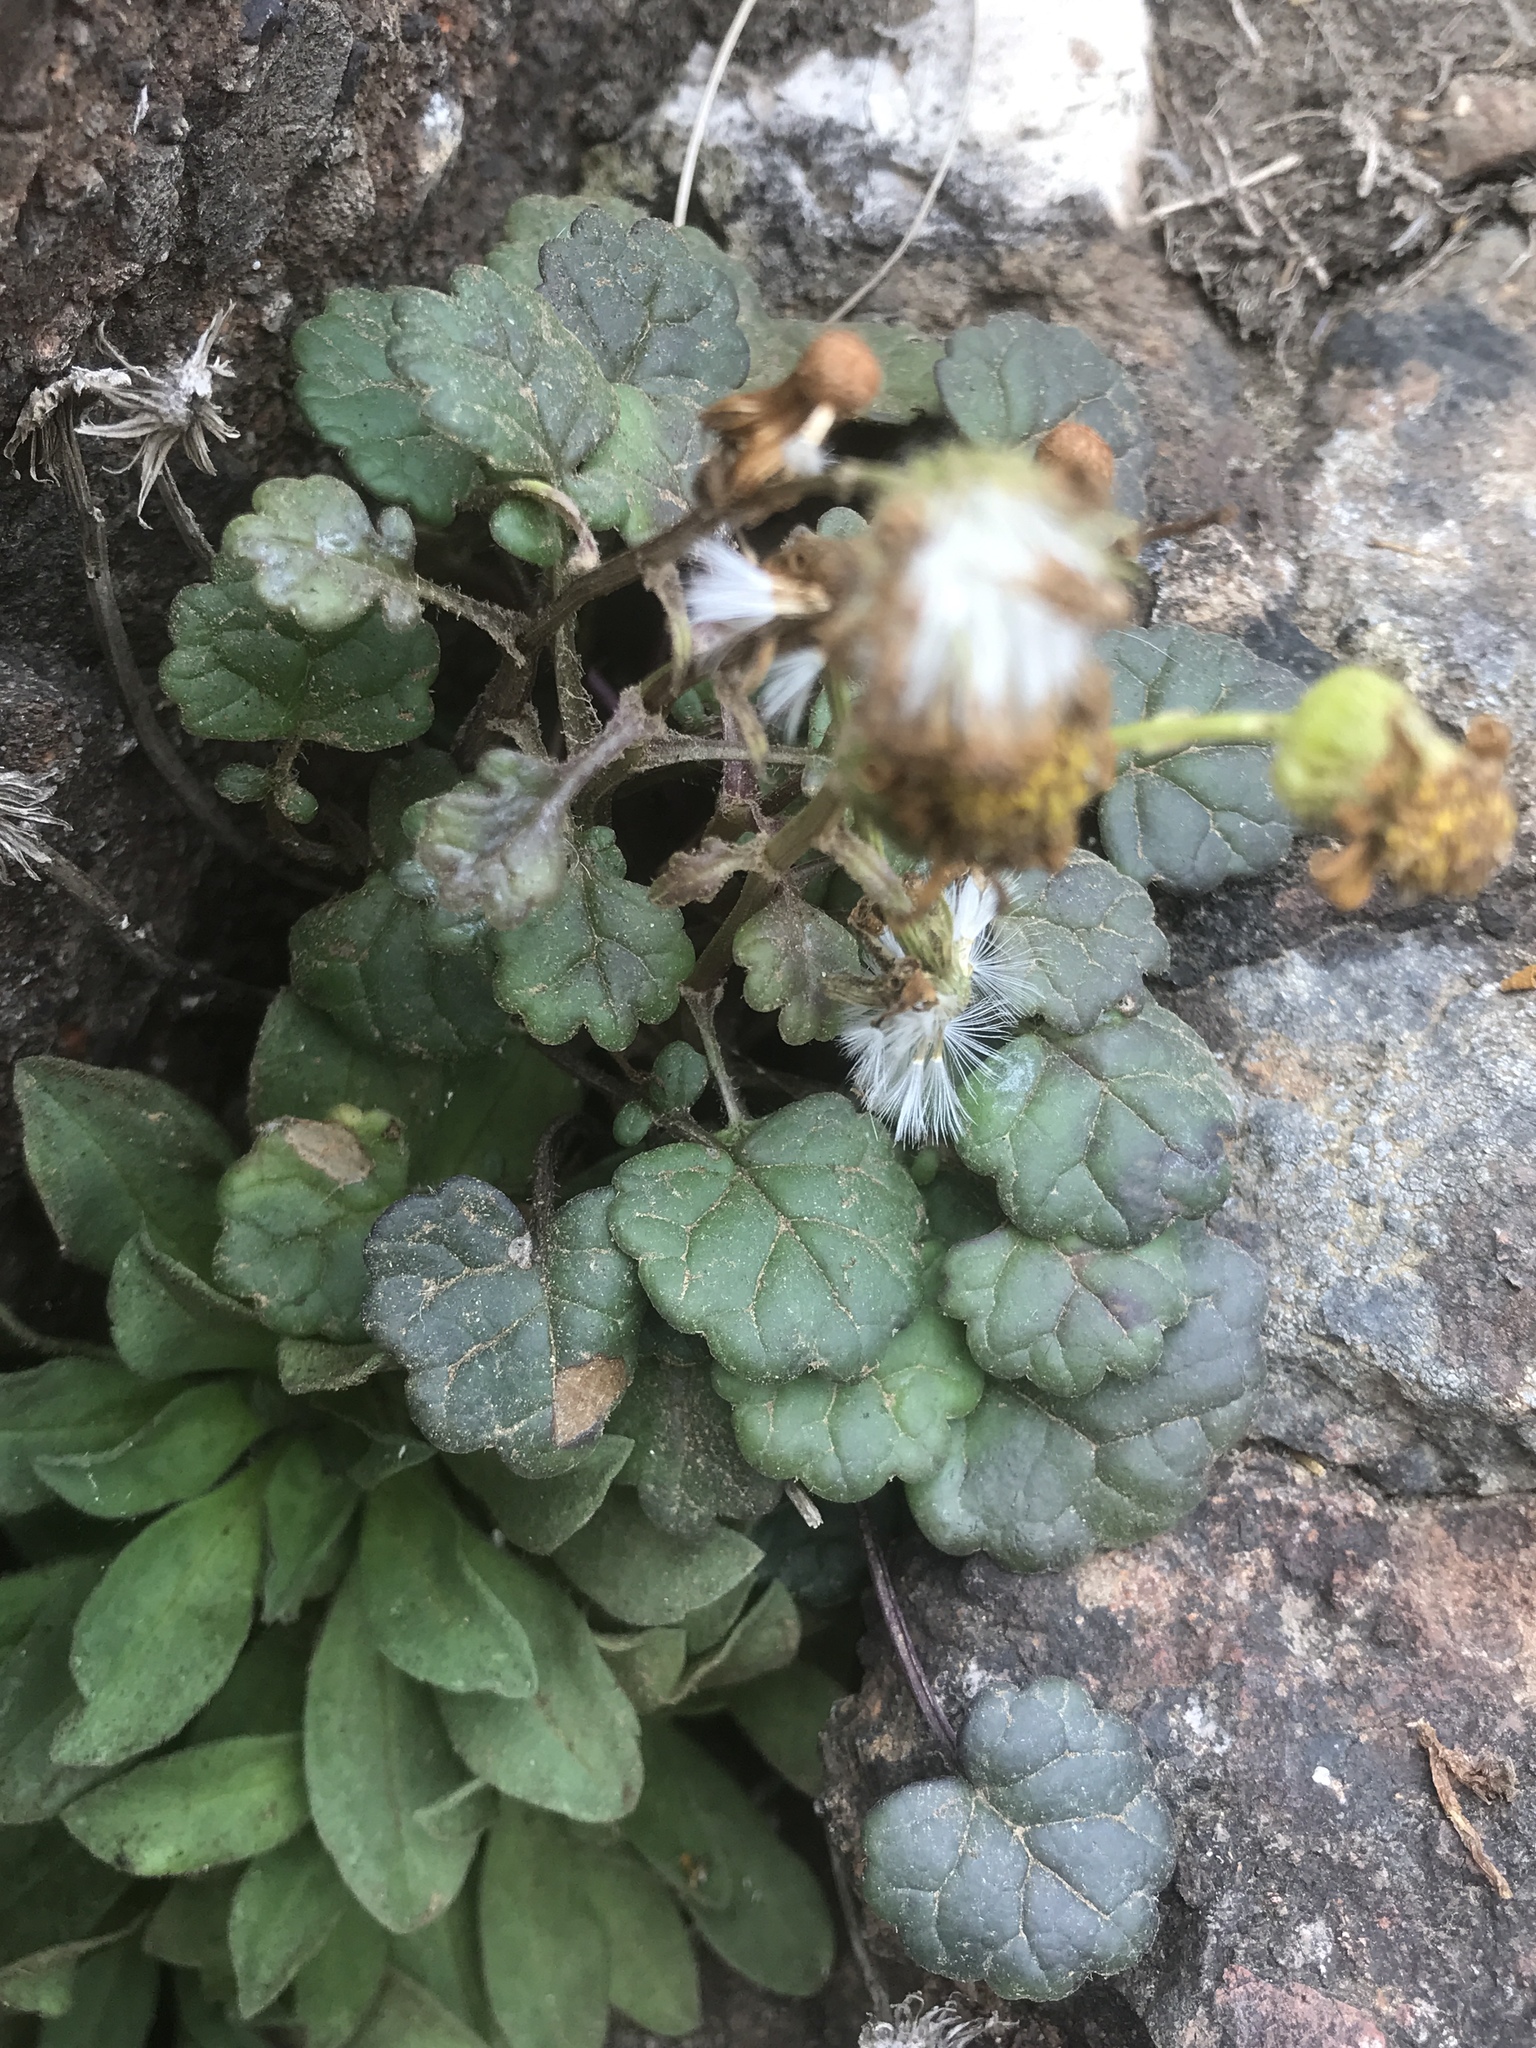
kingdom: Plantae
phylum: Tracheophyta
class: Magnoliopsida
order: Asterales
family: Asteraceae
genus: Packera
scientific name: Packera bolanderi
